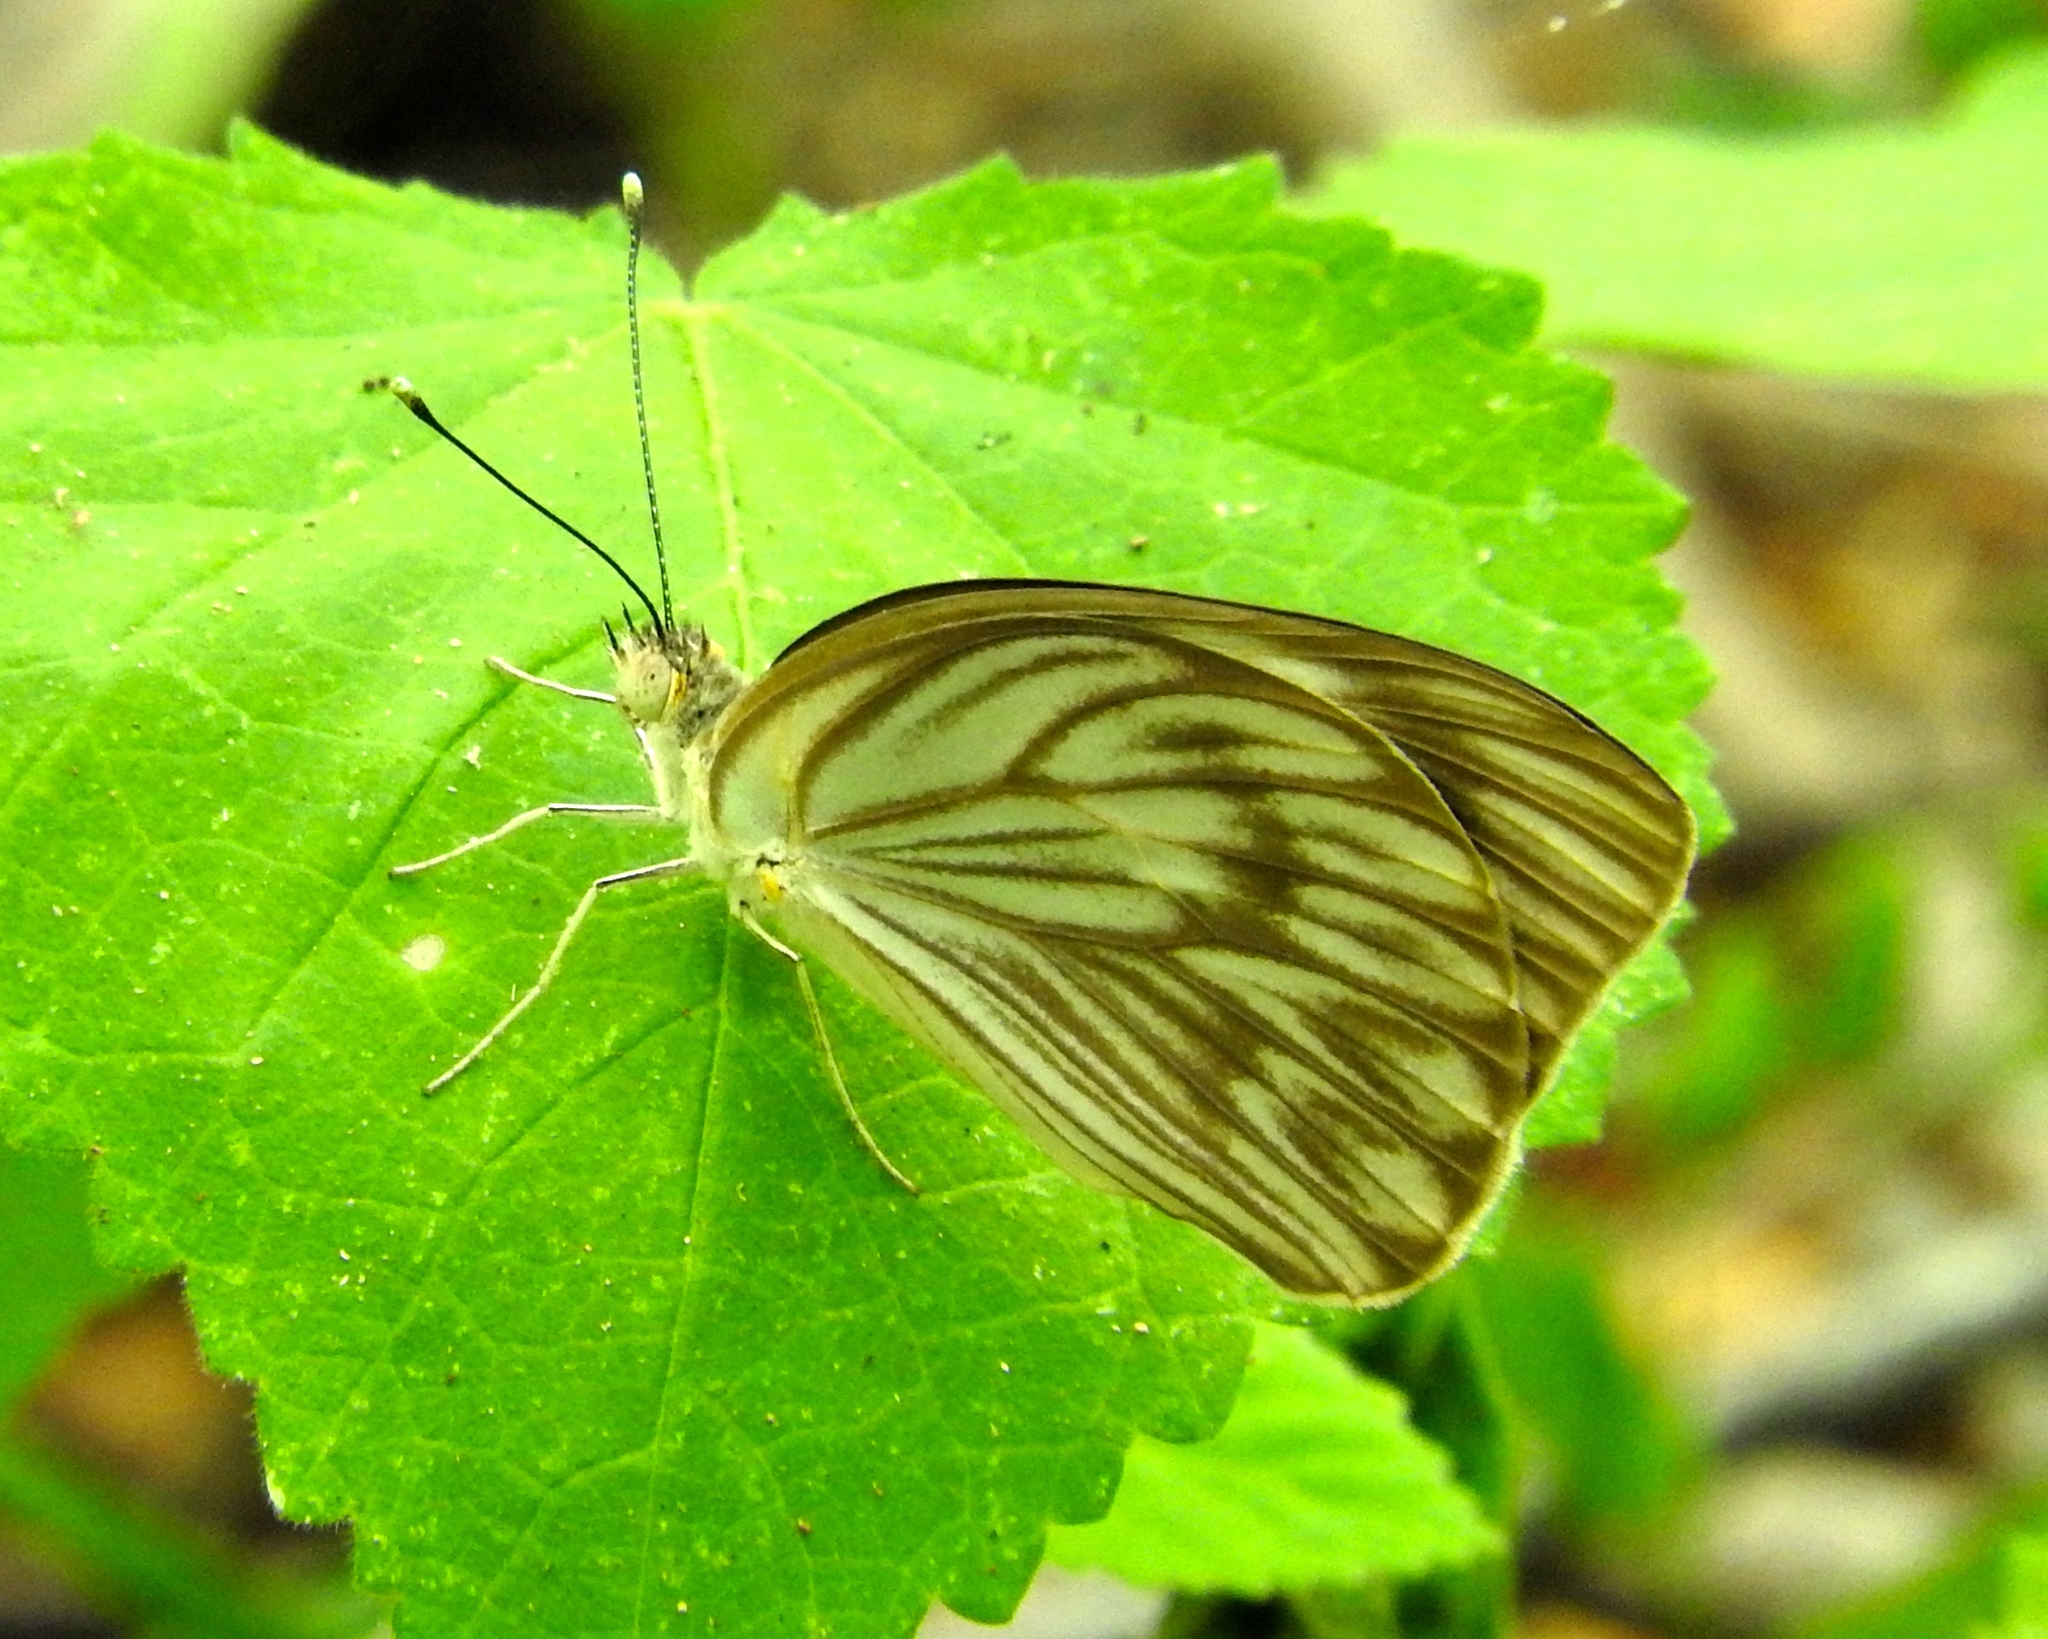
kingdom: Animalia
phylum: Arthropoda
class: Insecta
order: Lepidoptera
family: Pieridae
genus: Ascia
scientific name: Ascia monuste
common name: Great southern white
